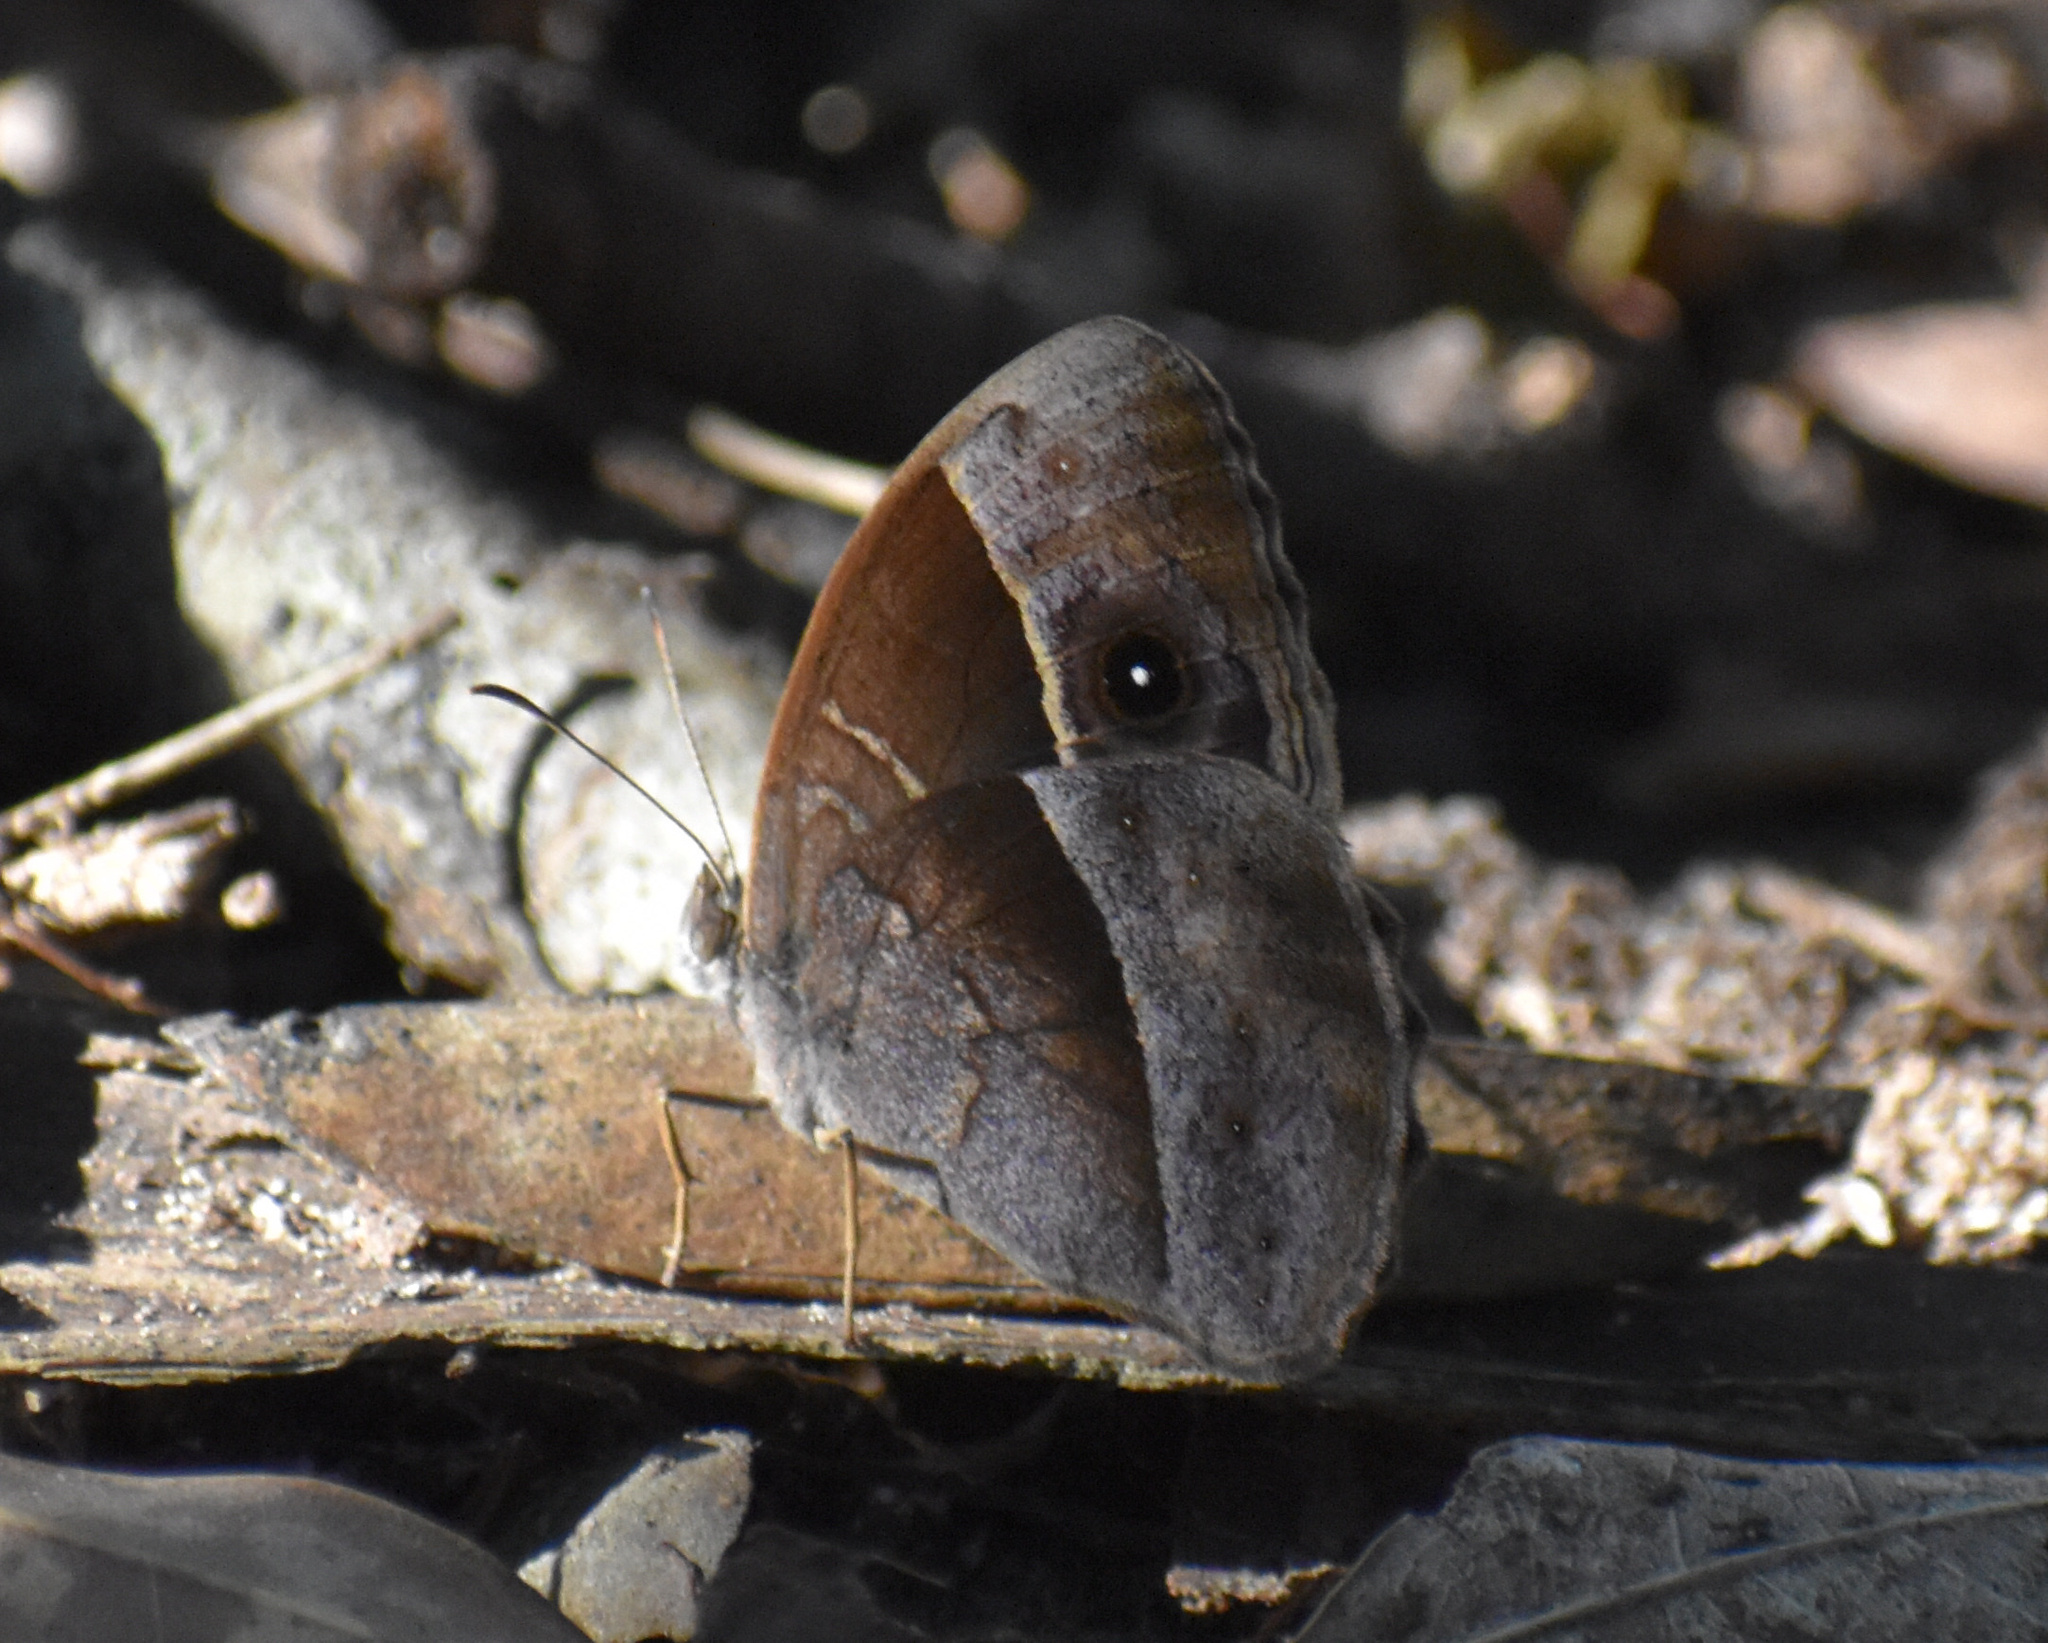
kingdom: Animalia
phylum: Arthropoda
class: Insecta
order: Lepidoptera
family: Nymphalidae
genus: Mycalesis
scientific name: Mycalesis rhacotis
